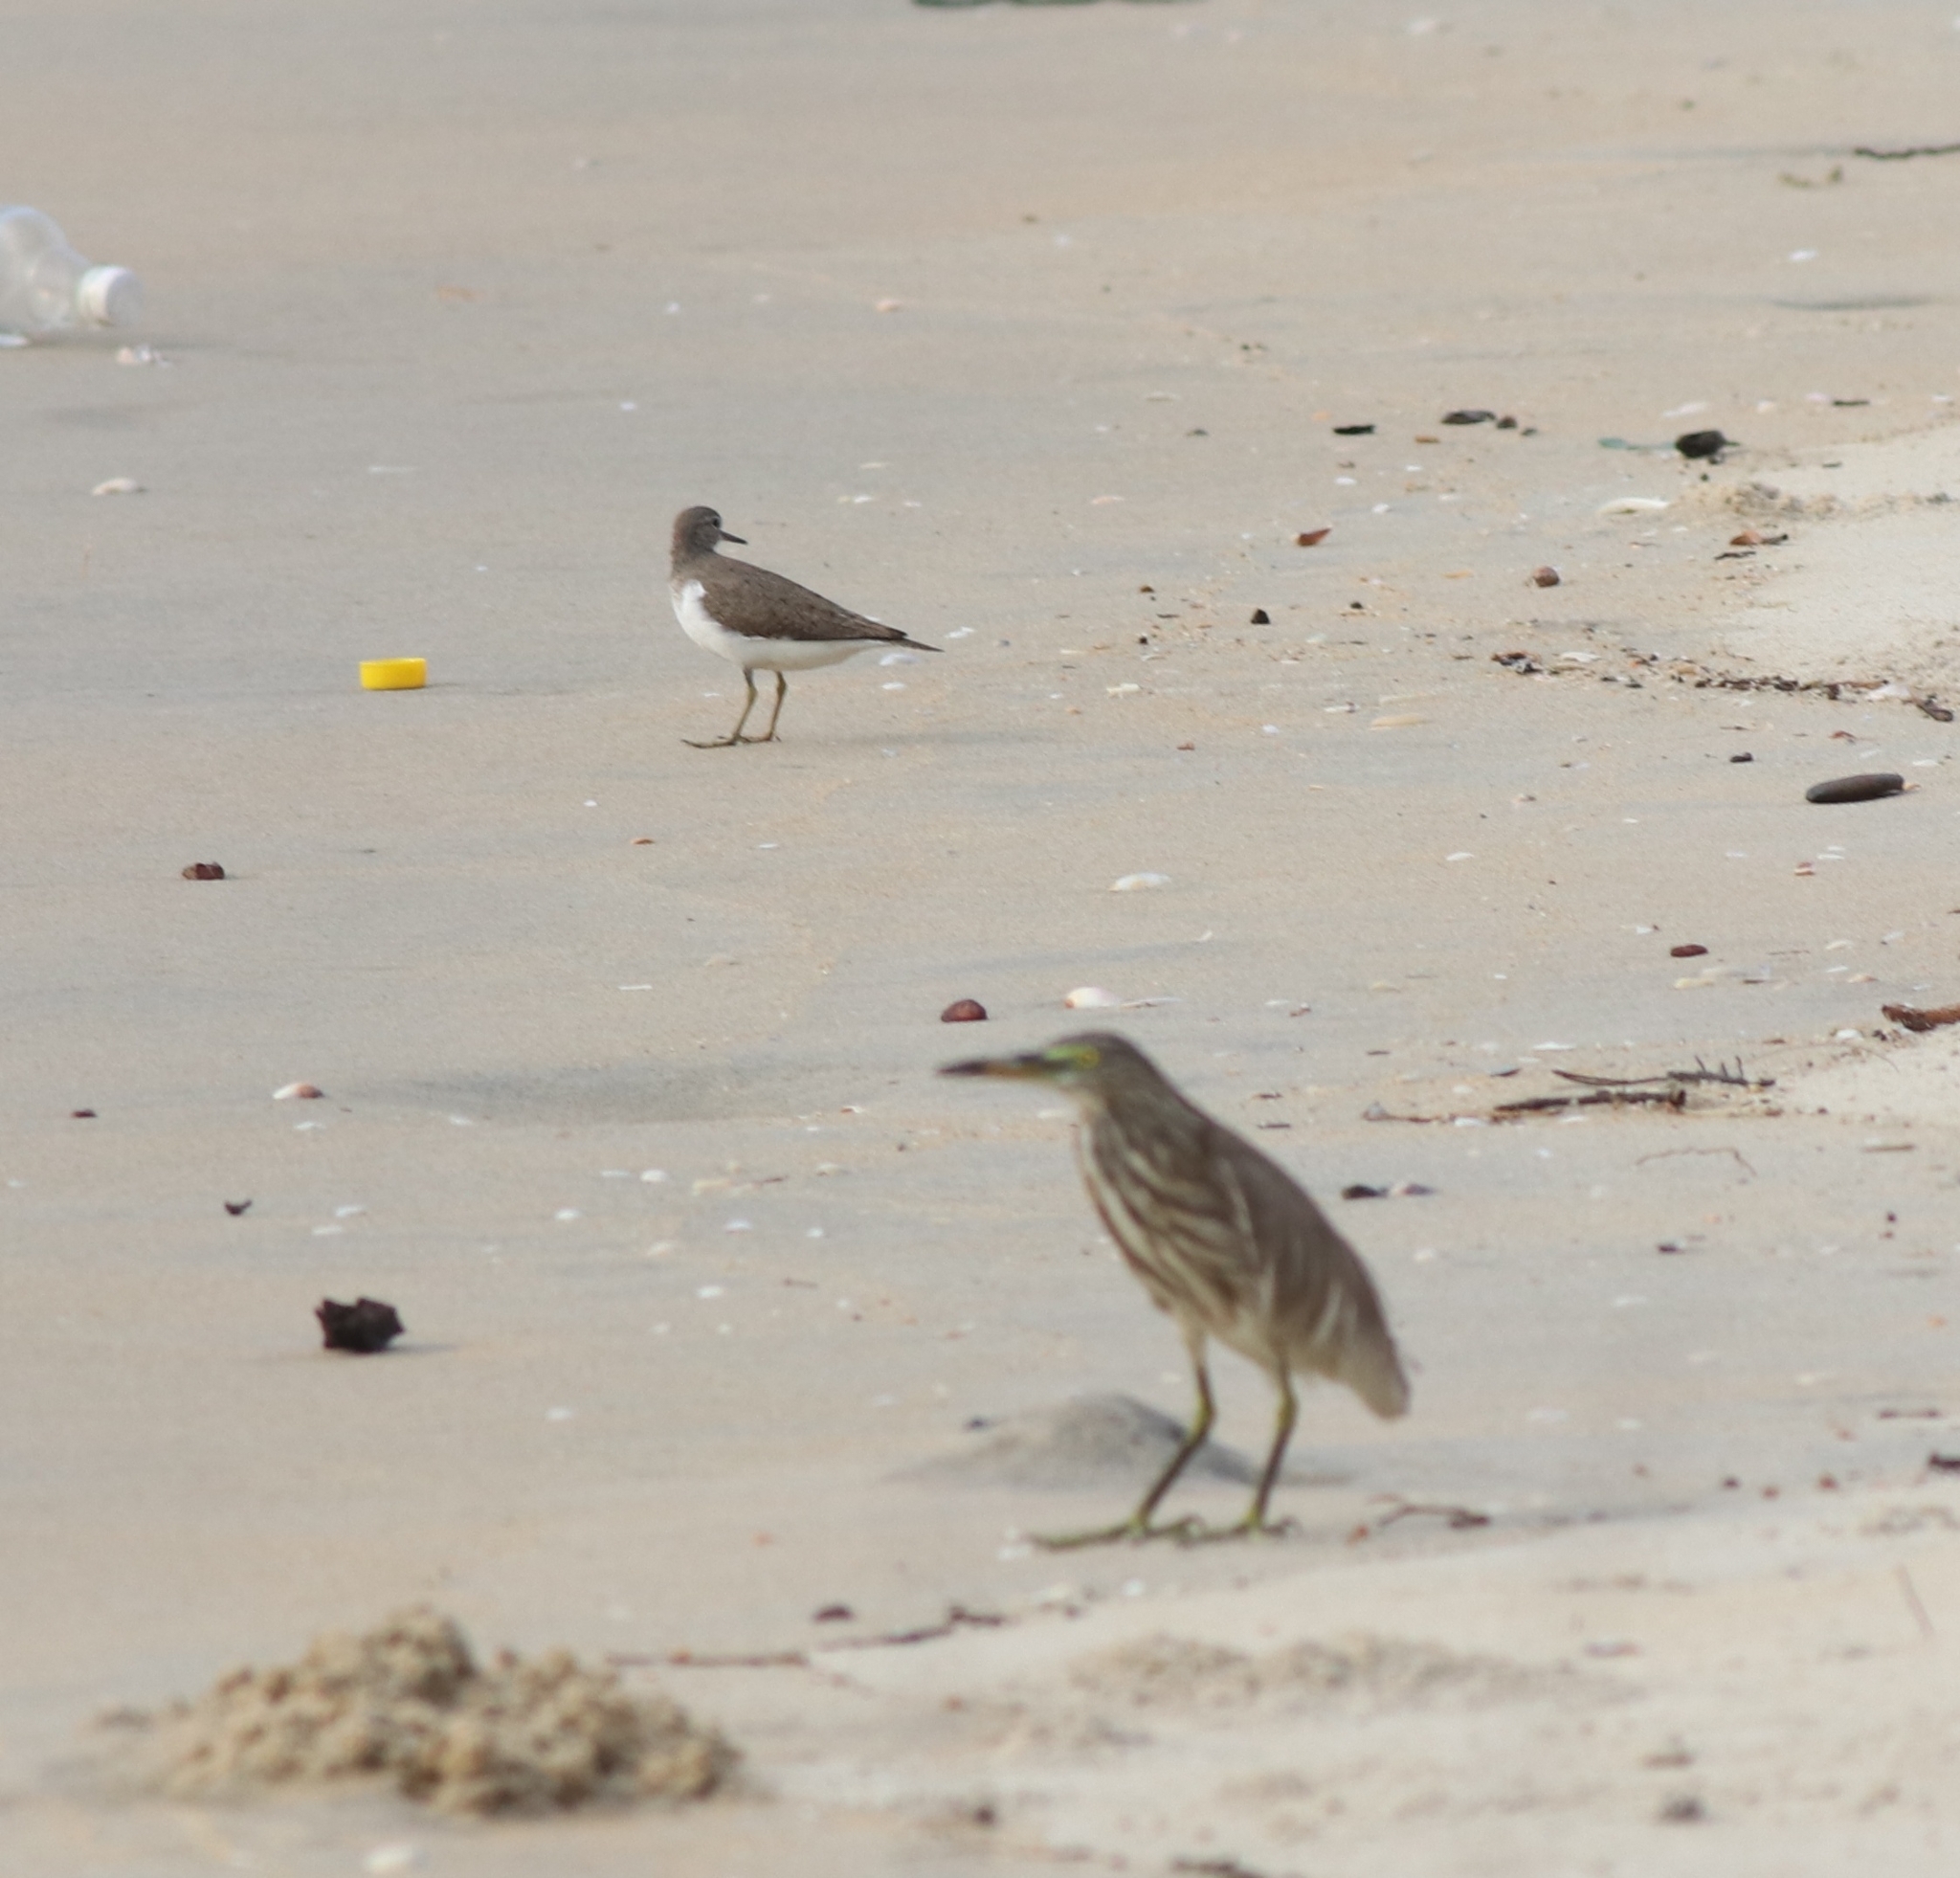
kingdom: Animalia
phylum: Chordata
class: Aves
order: Charadriiformes
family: Scolopacidae
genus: Actitis
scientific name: Actitis hypoleucos
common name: Common sandpiper
